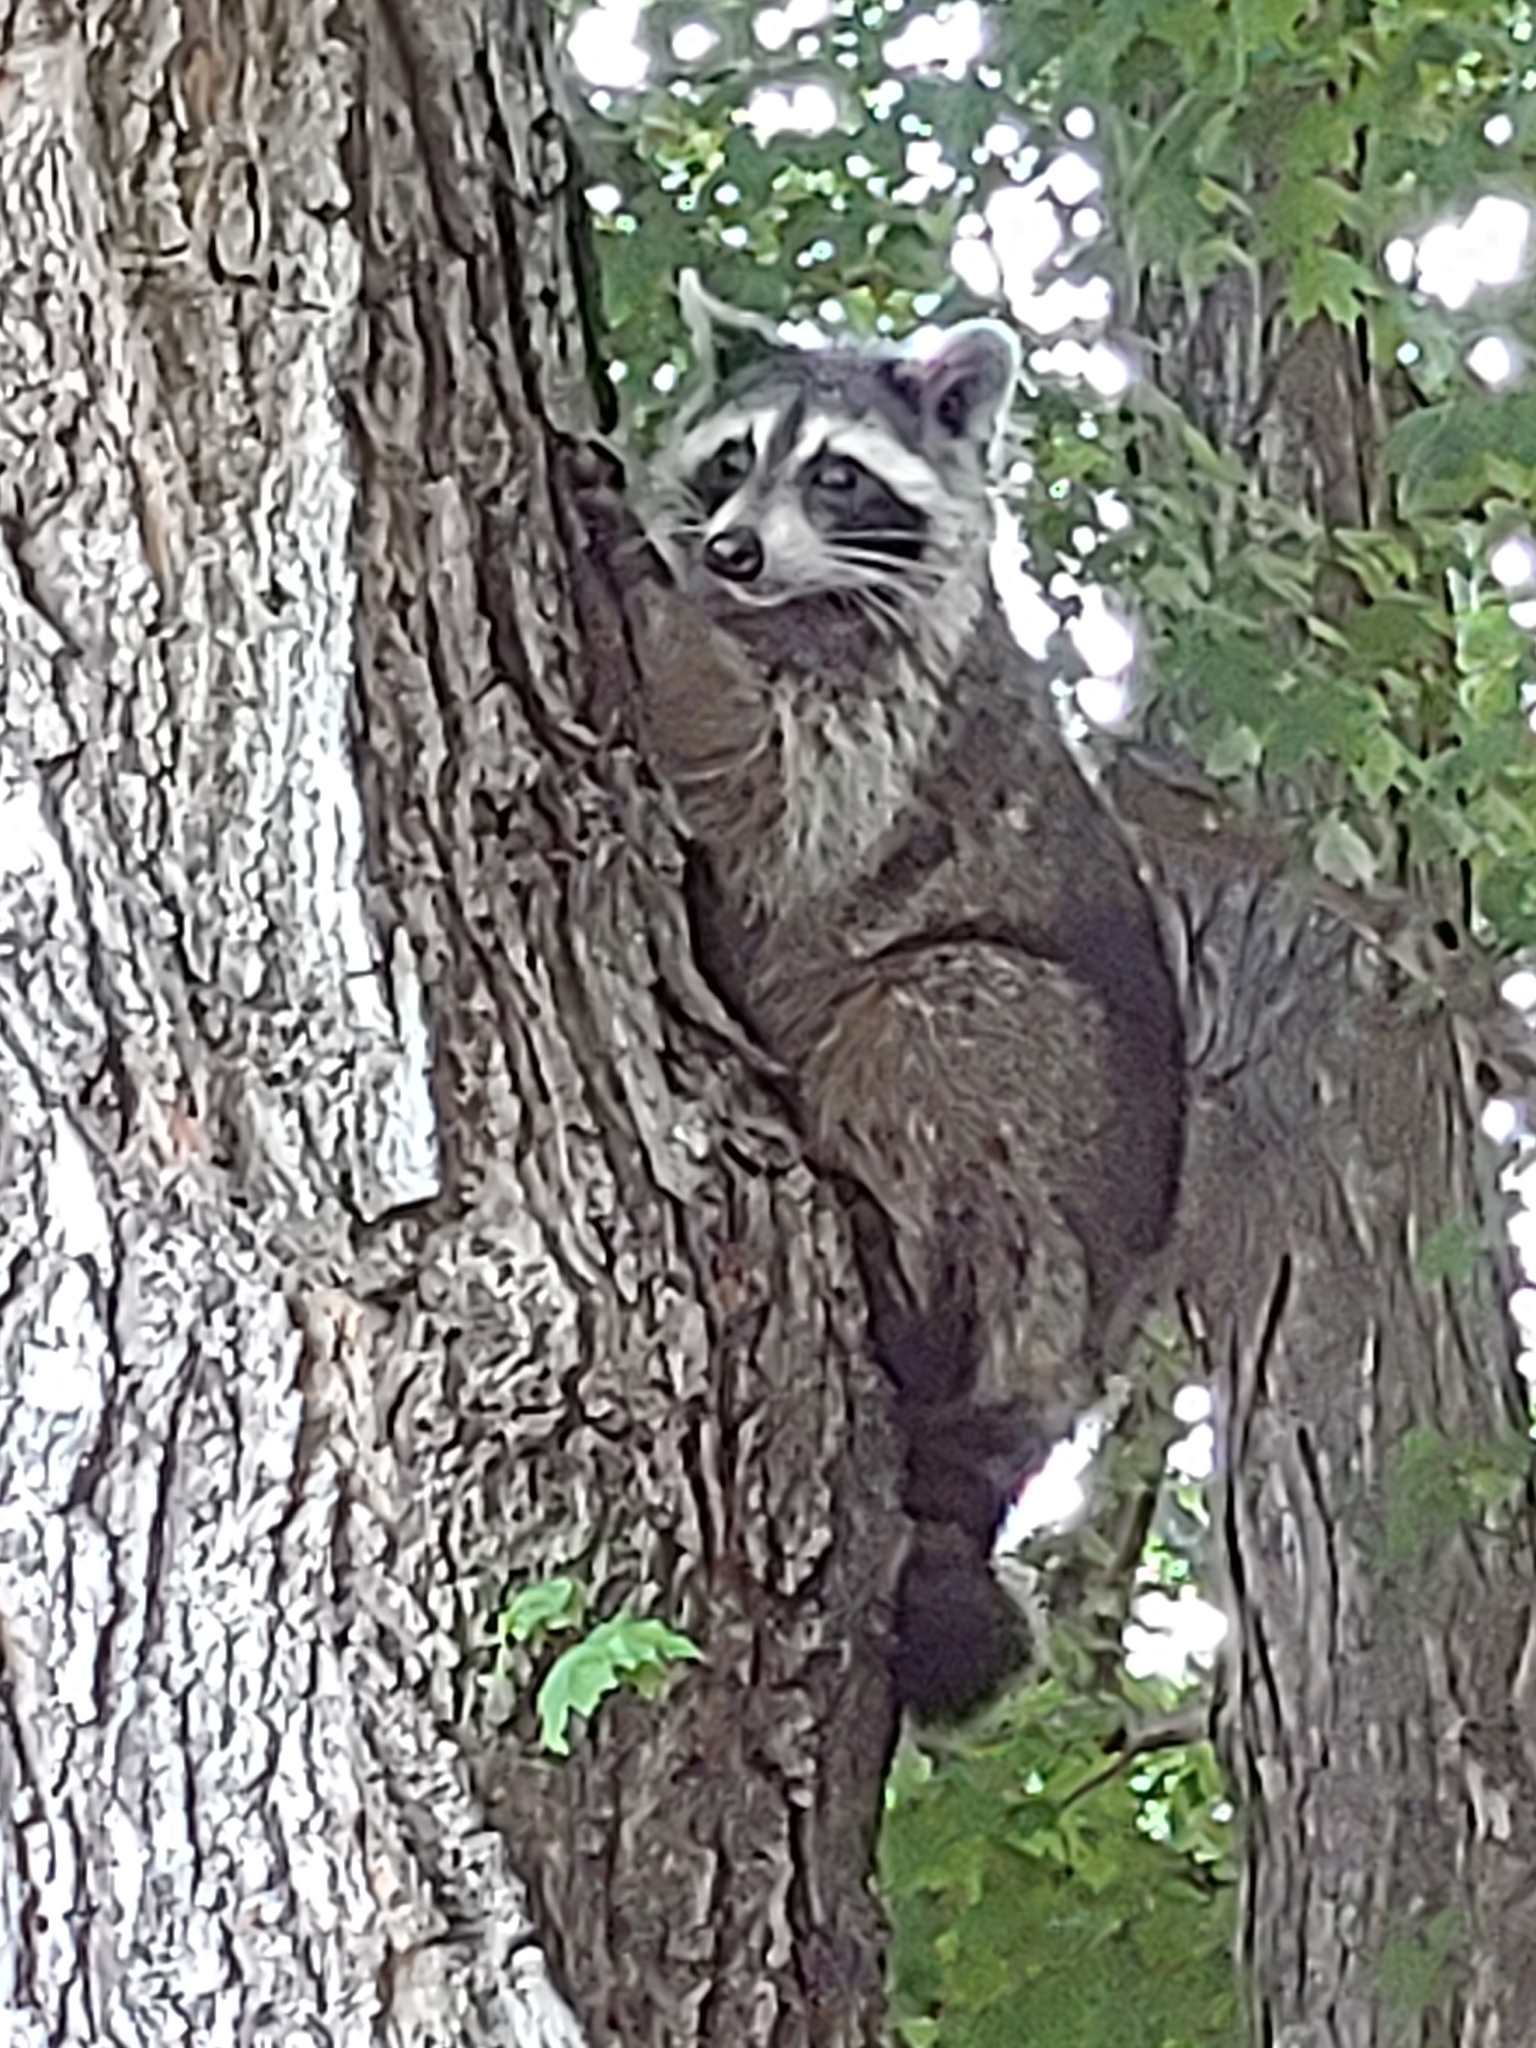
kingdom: Animalia
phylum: Chordata
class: Mammalia
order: Carnivora
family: Procyonidae
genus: Procyon
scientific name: Procyon lotor
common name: Raccoon
